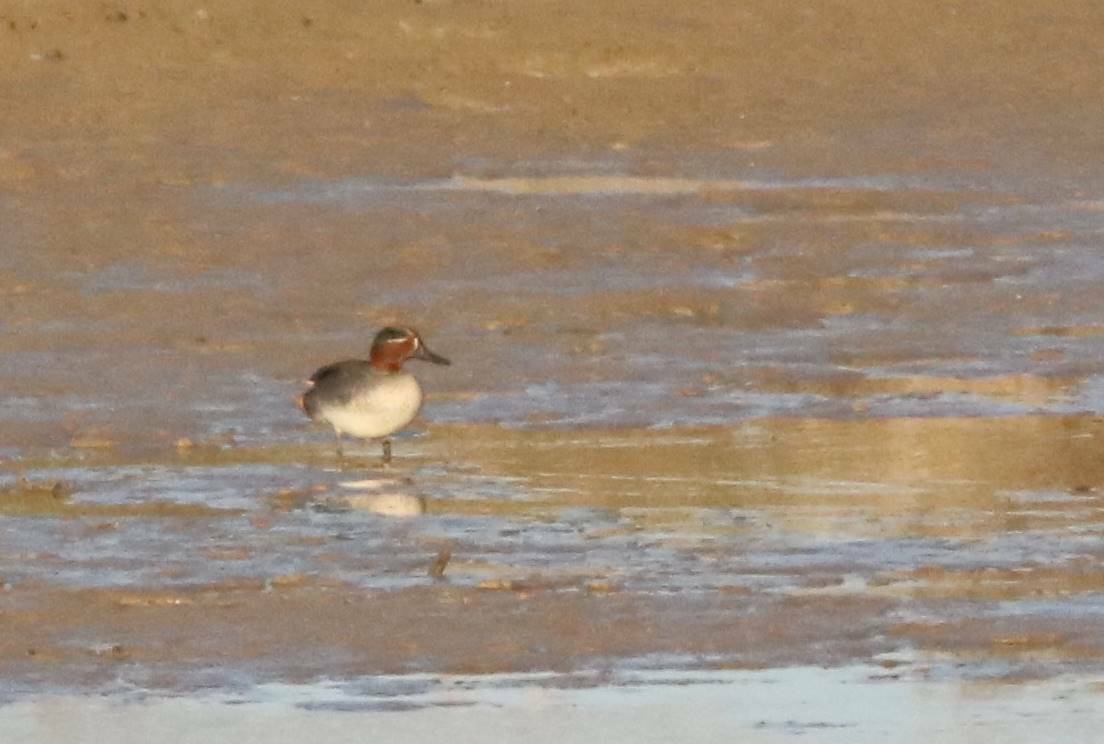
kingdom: Animalia
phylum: Chordata
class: Aves
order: Anseriformes
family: Anatidae
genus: Anas
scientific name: Anas crecca
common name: Eurasian teal
